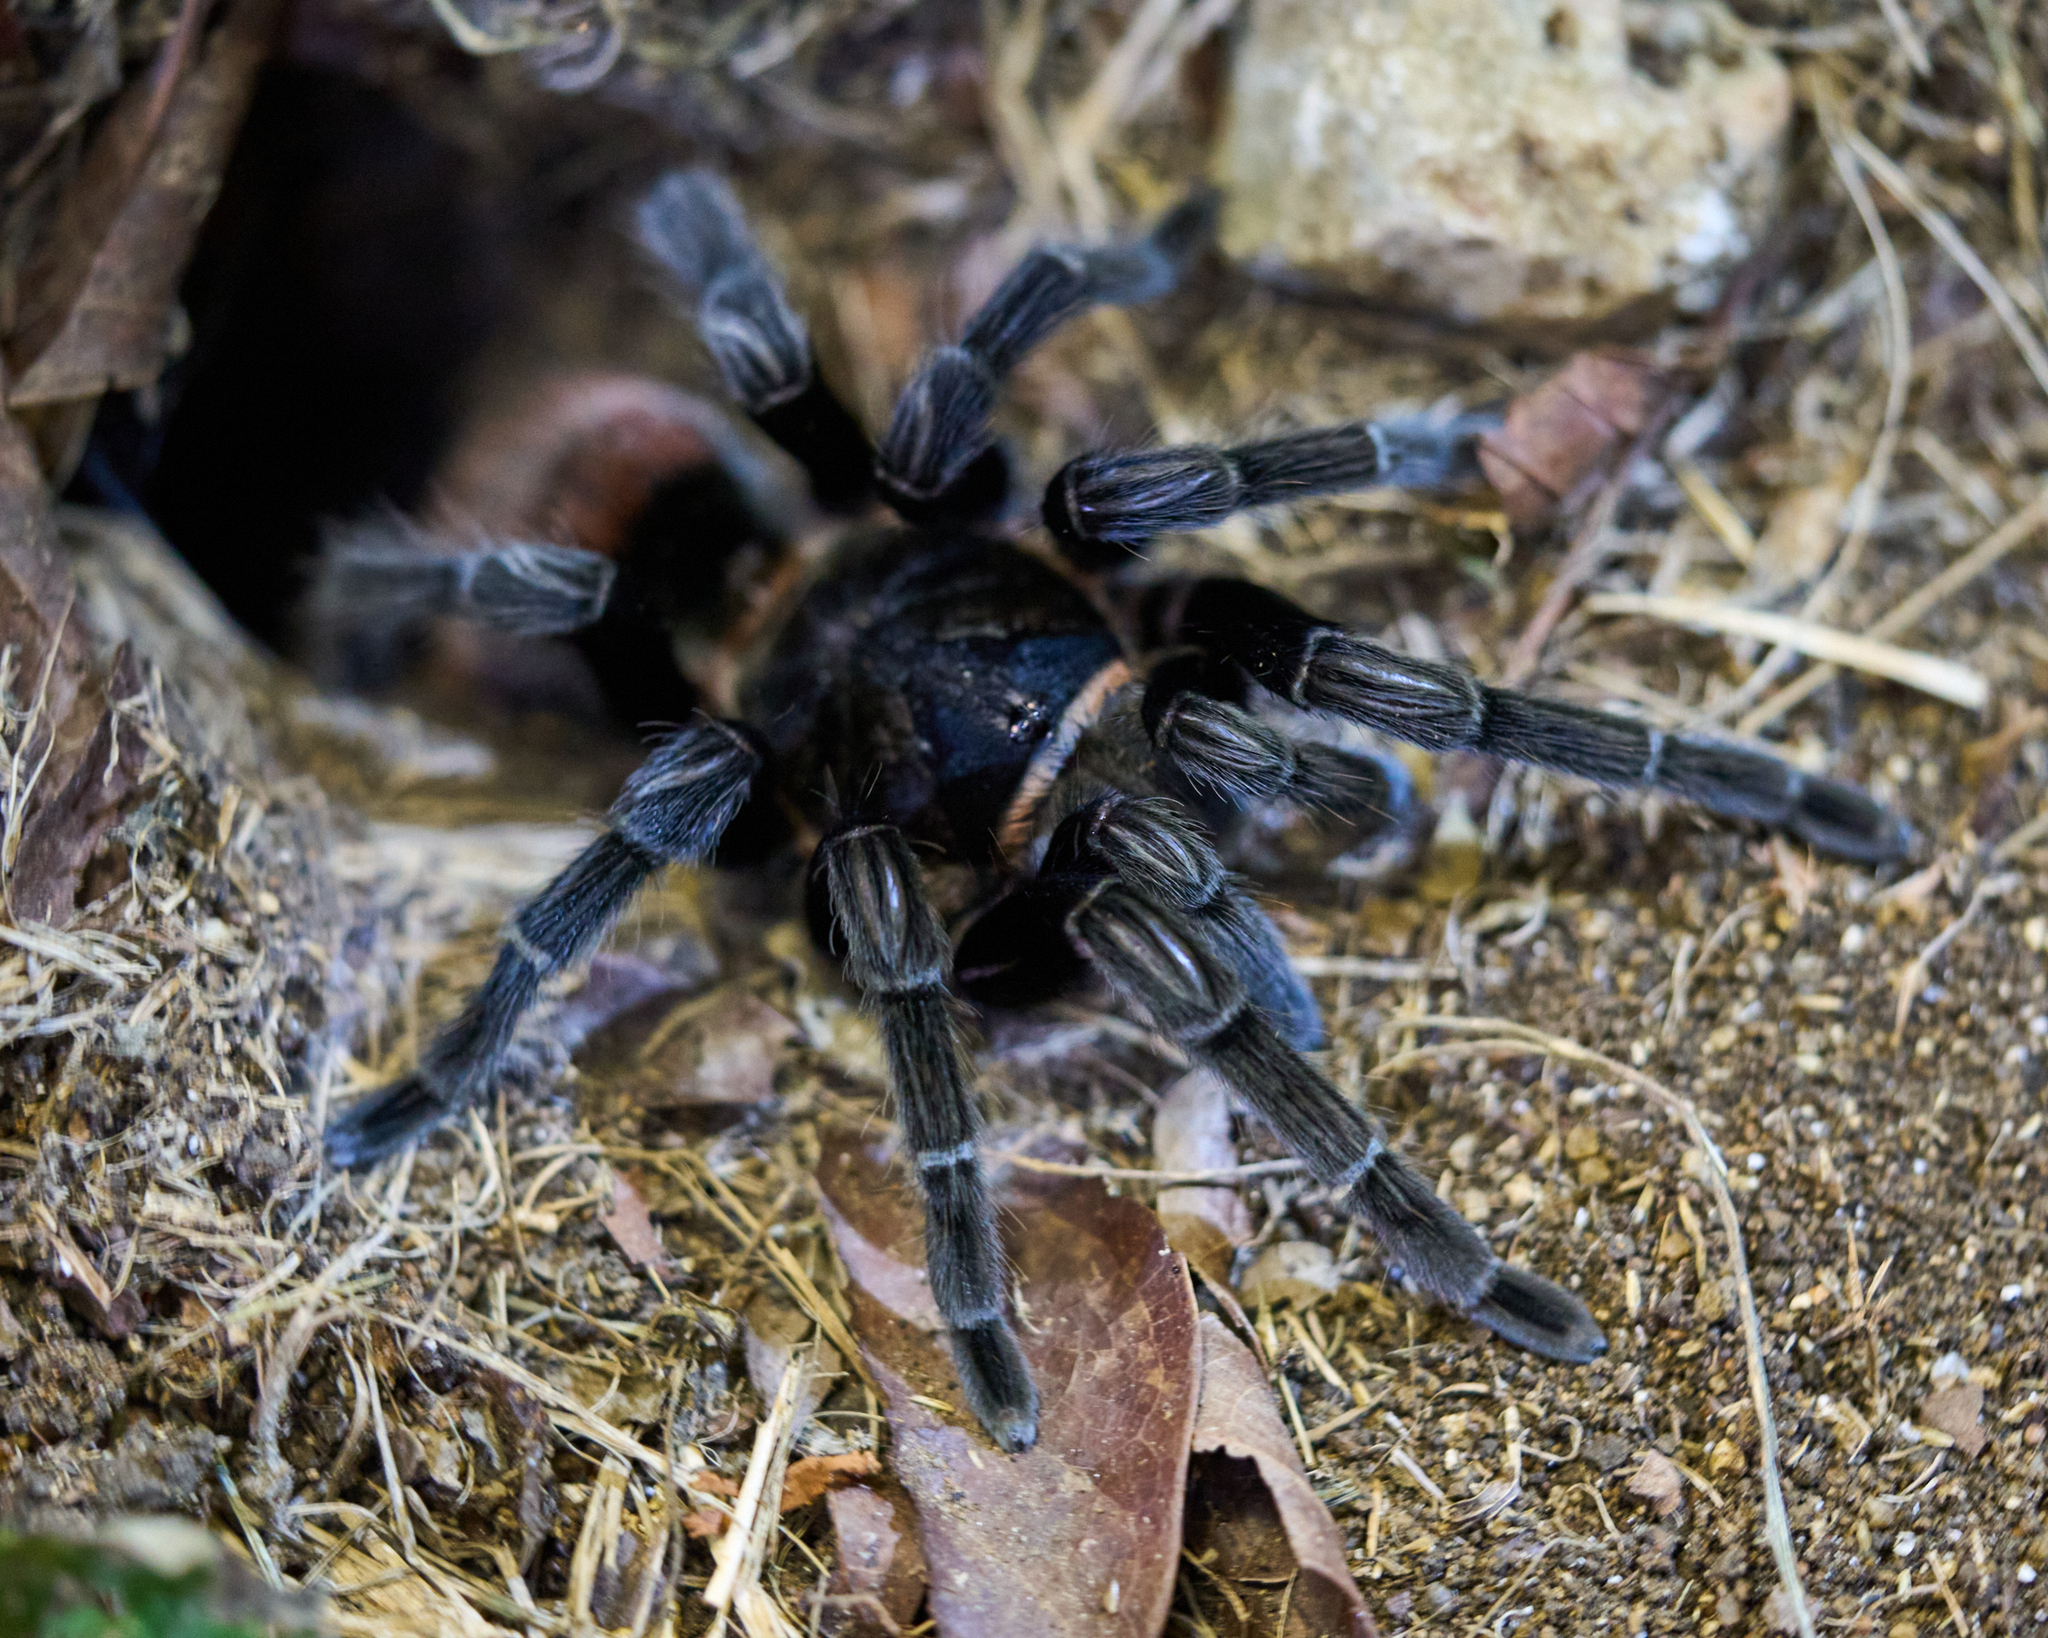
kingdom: Animalia
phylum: Arthropoda
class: Arachnida
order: Araneae
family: Theraphosidae
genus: Tliltocatl
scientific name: Tliltocatl vagans
